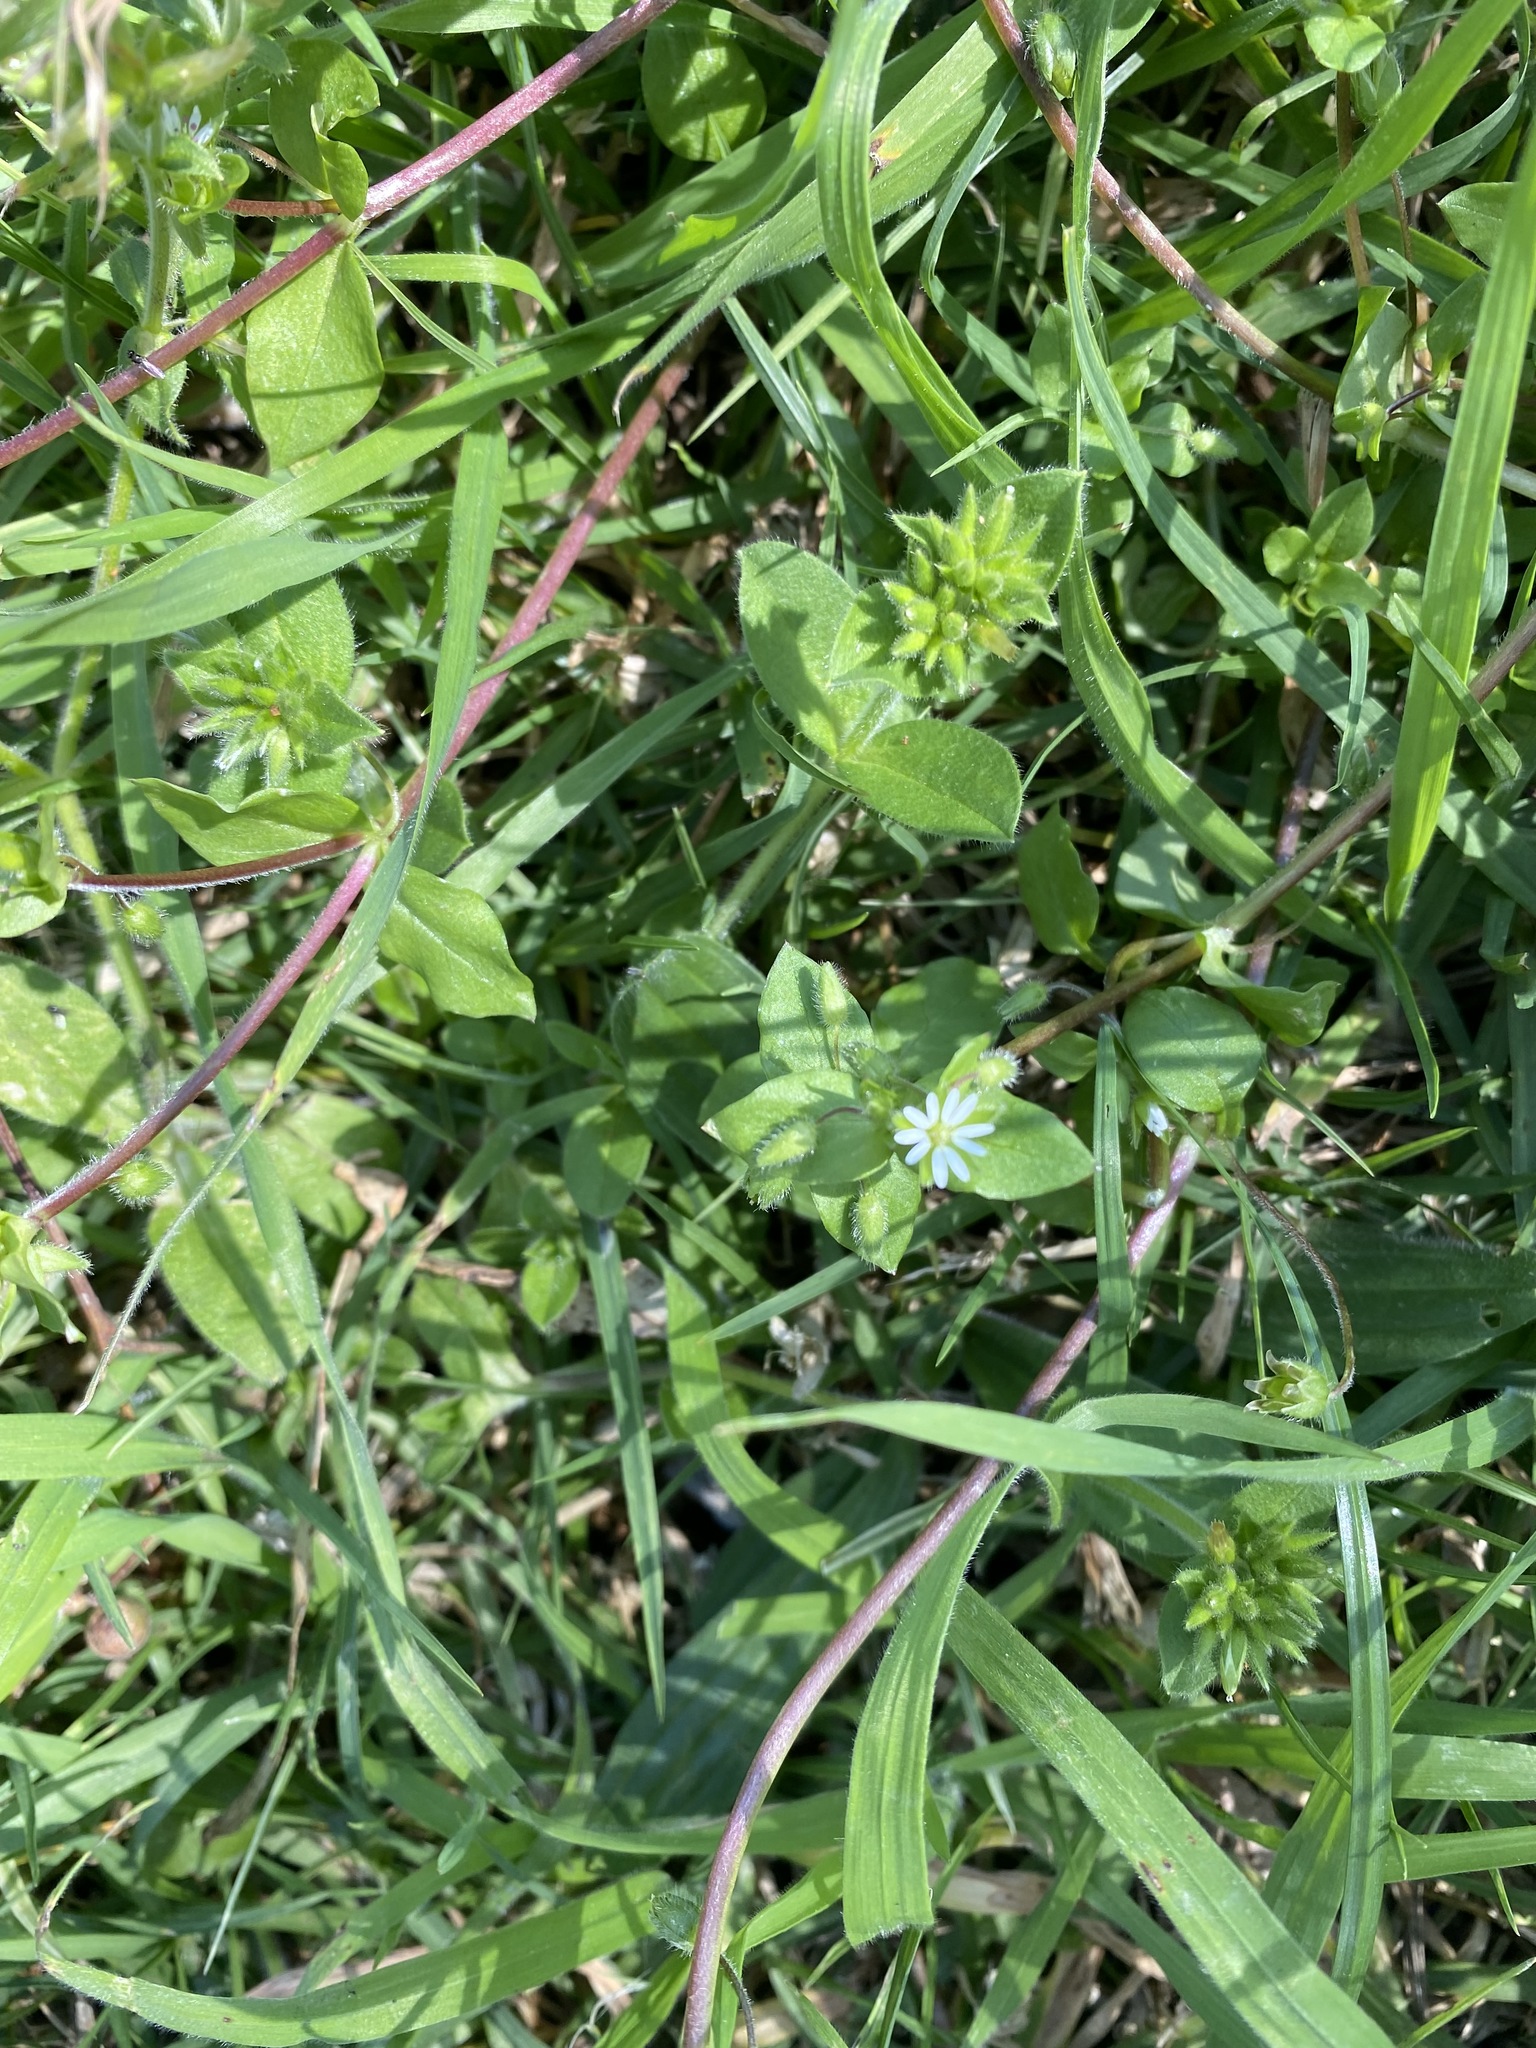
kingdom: Plantae
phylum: Tracheophyta
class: Magnoliopsida
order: Caryophyllales
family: Caryophyllaceae
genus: Stellaria
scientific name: Stellaria media
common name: Common chickweed
